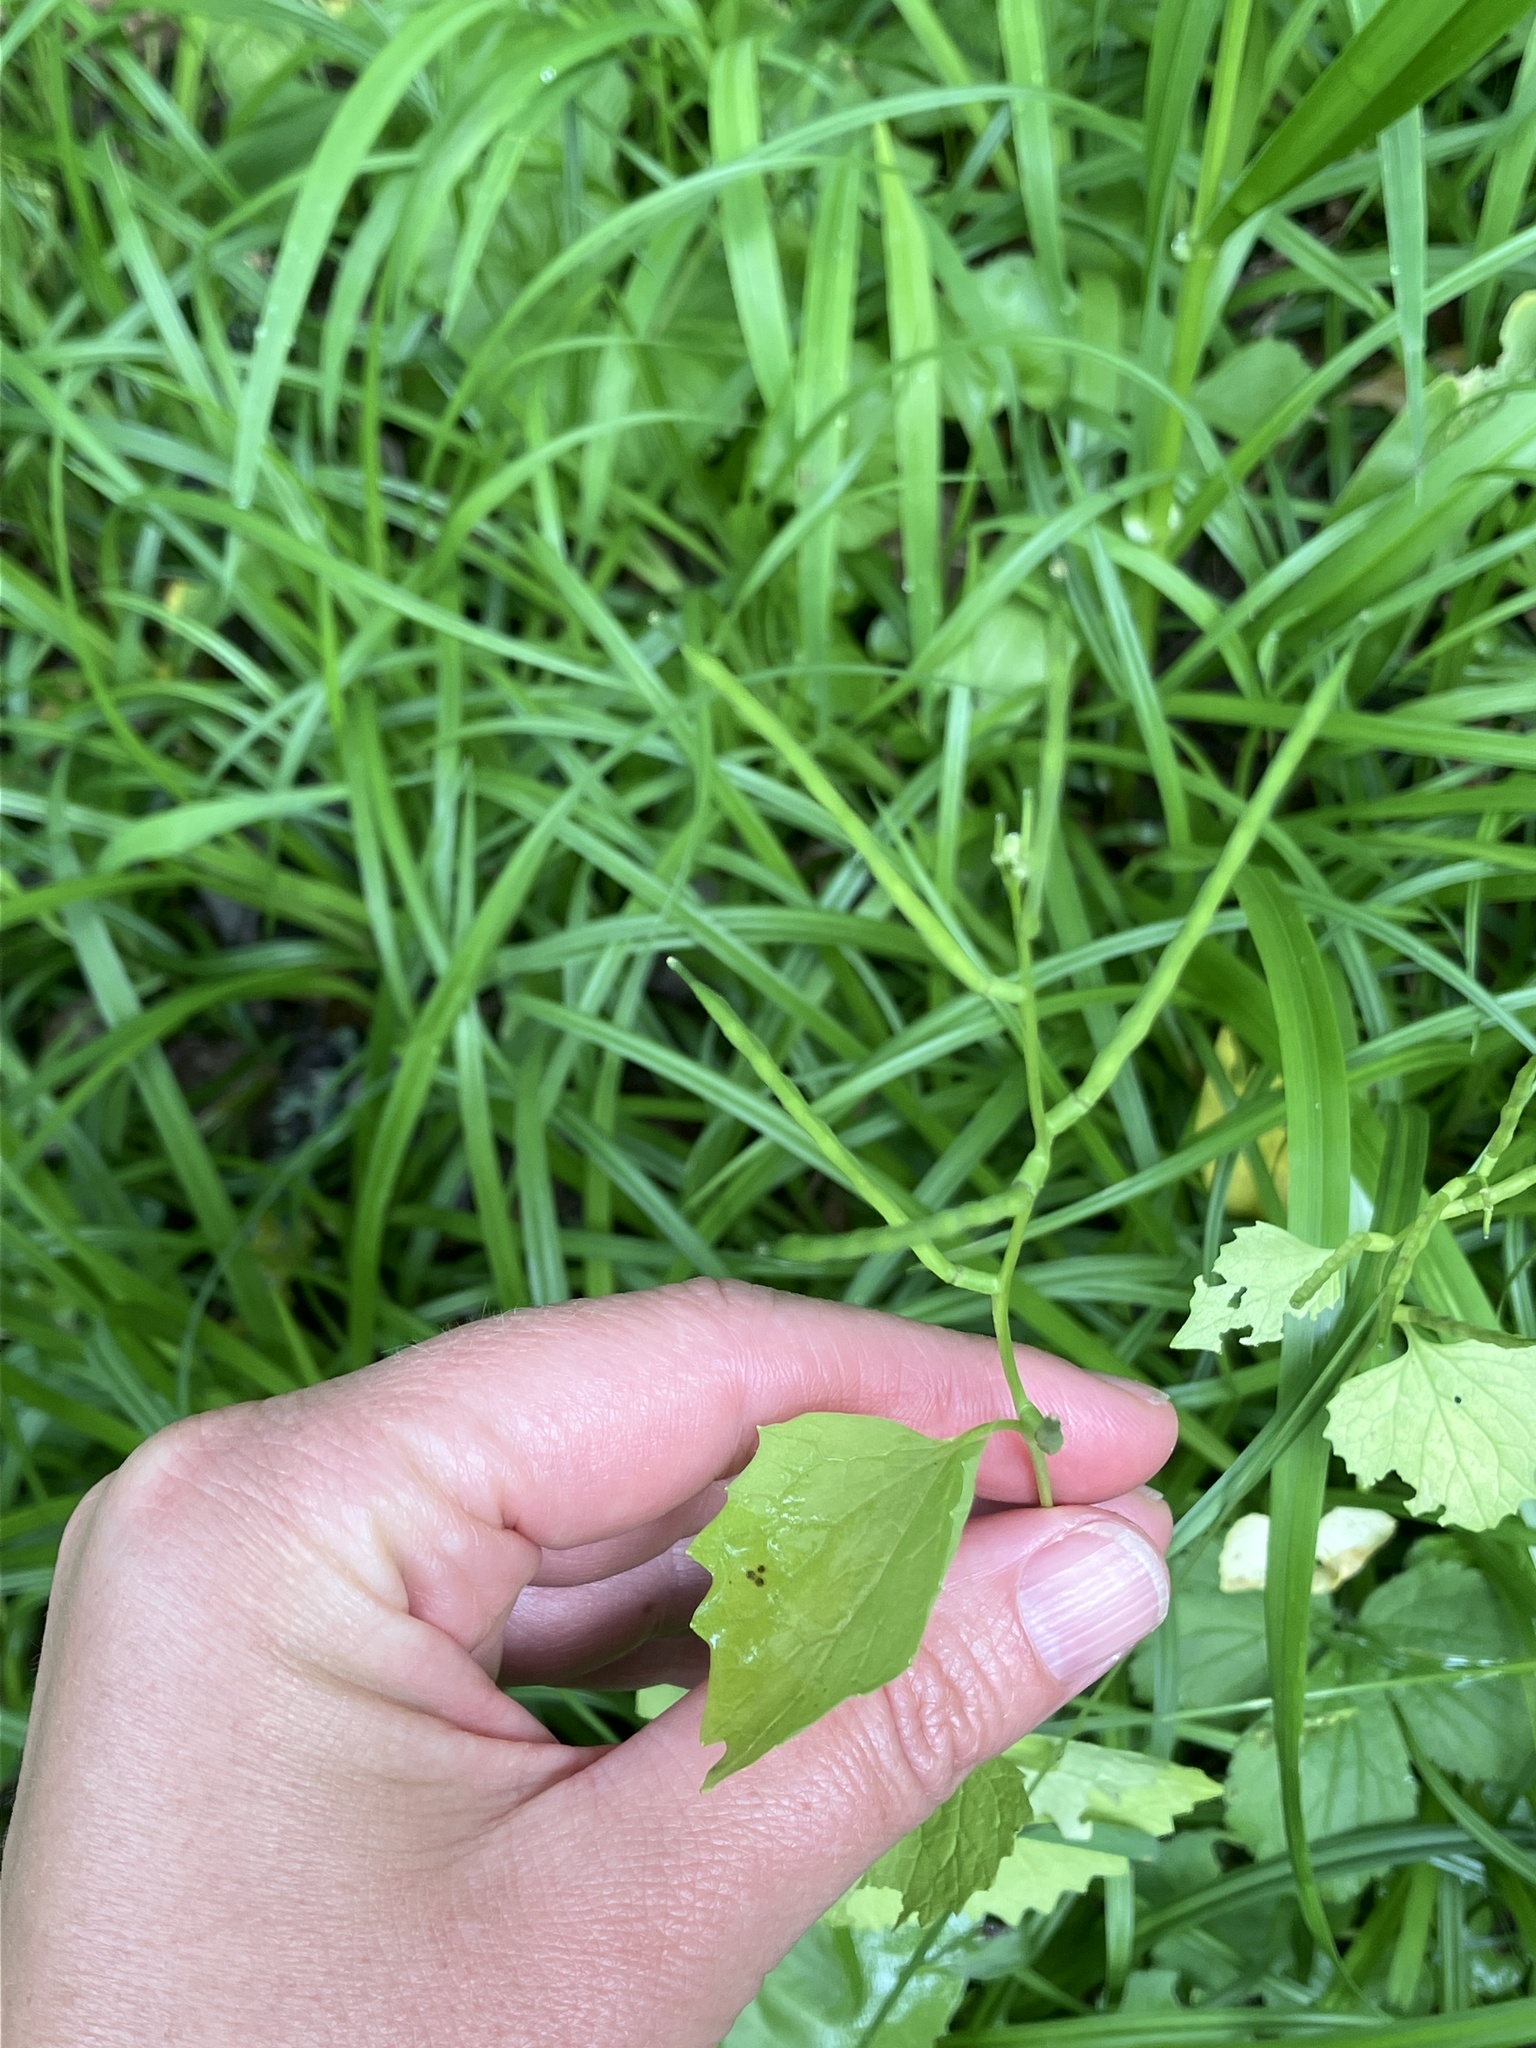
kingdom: Plantae
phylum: Tracheophyta
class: Magnoliopsida
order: Brassicales
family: Brassicaceae
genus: Alliaria
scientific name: Alliaria petiolata
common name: Garlic mustard
